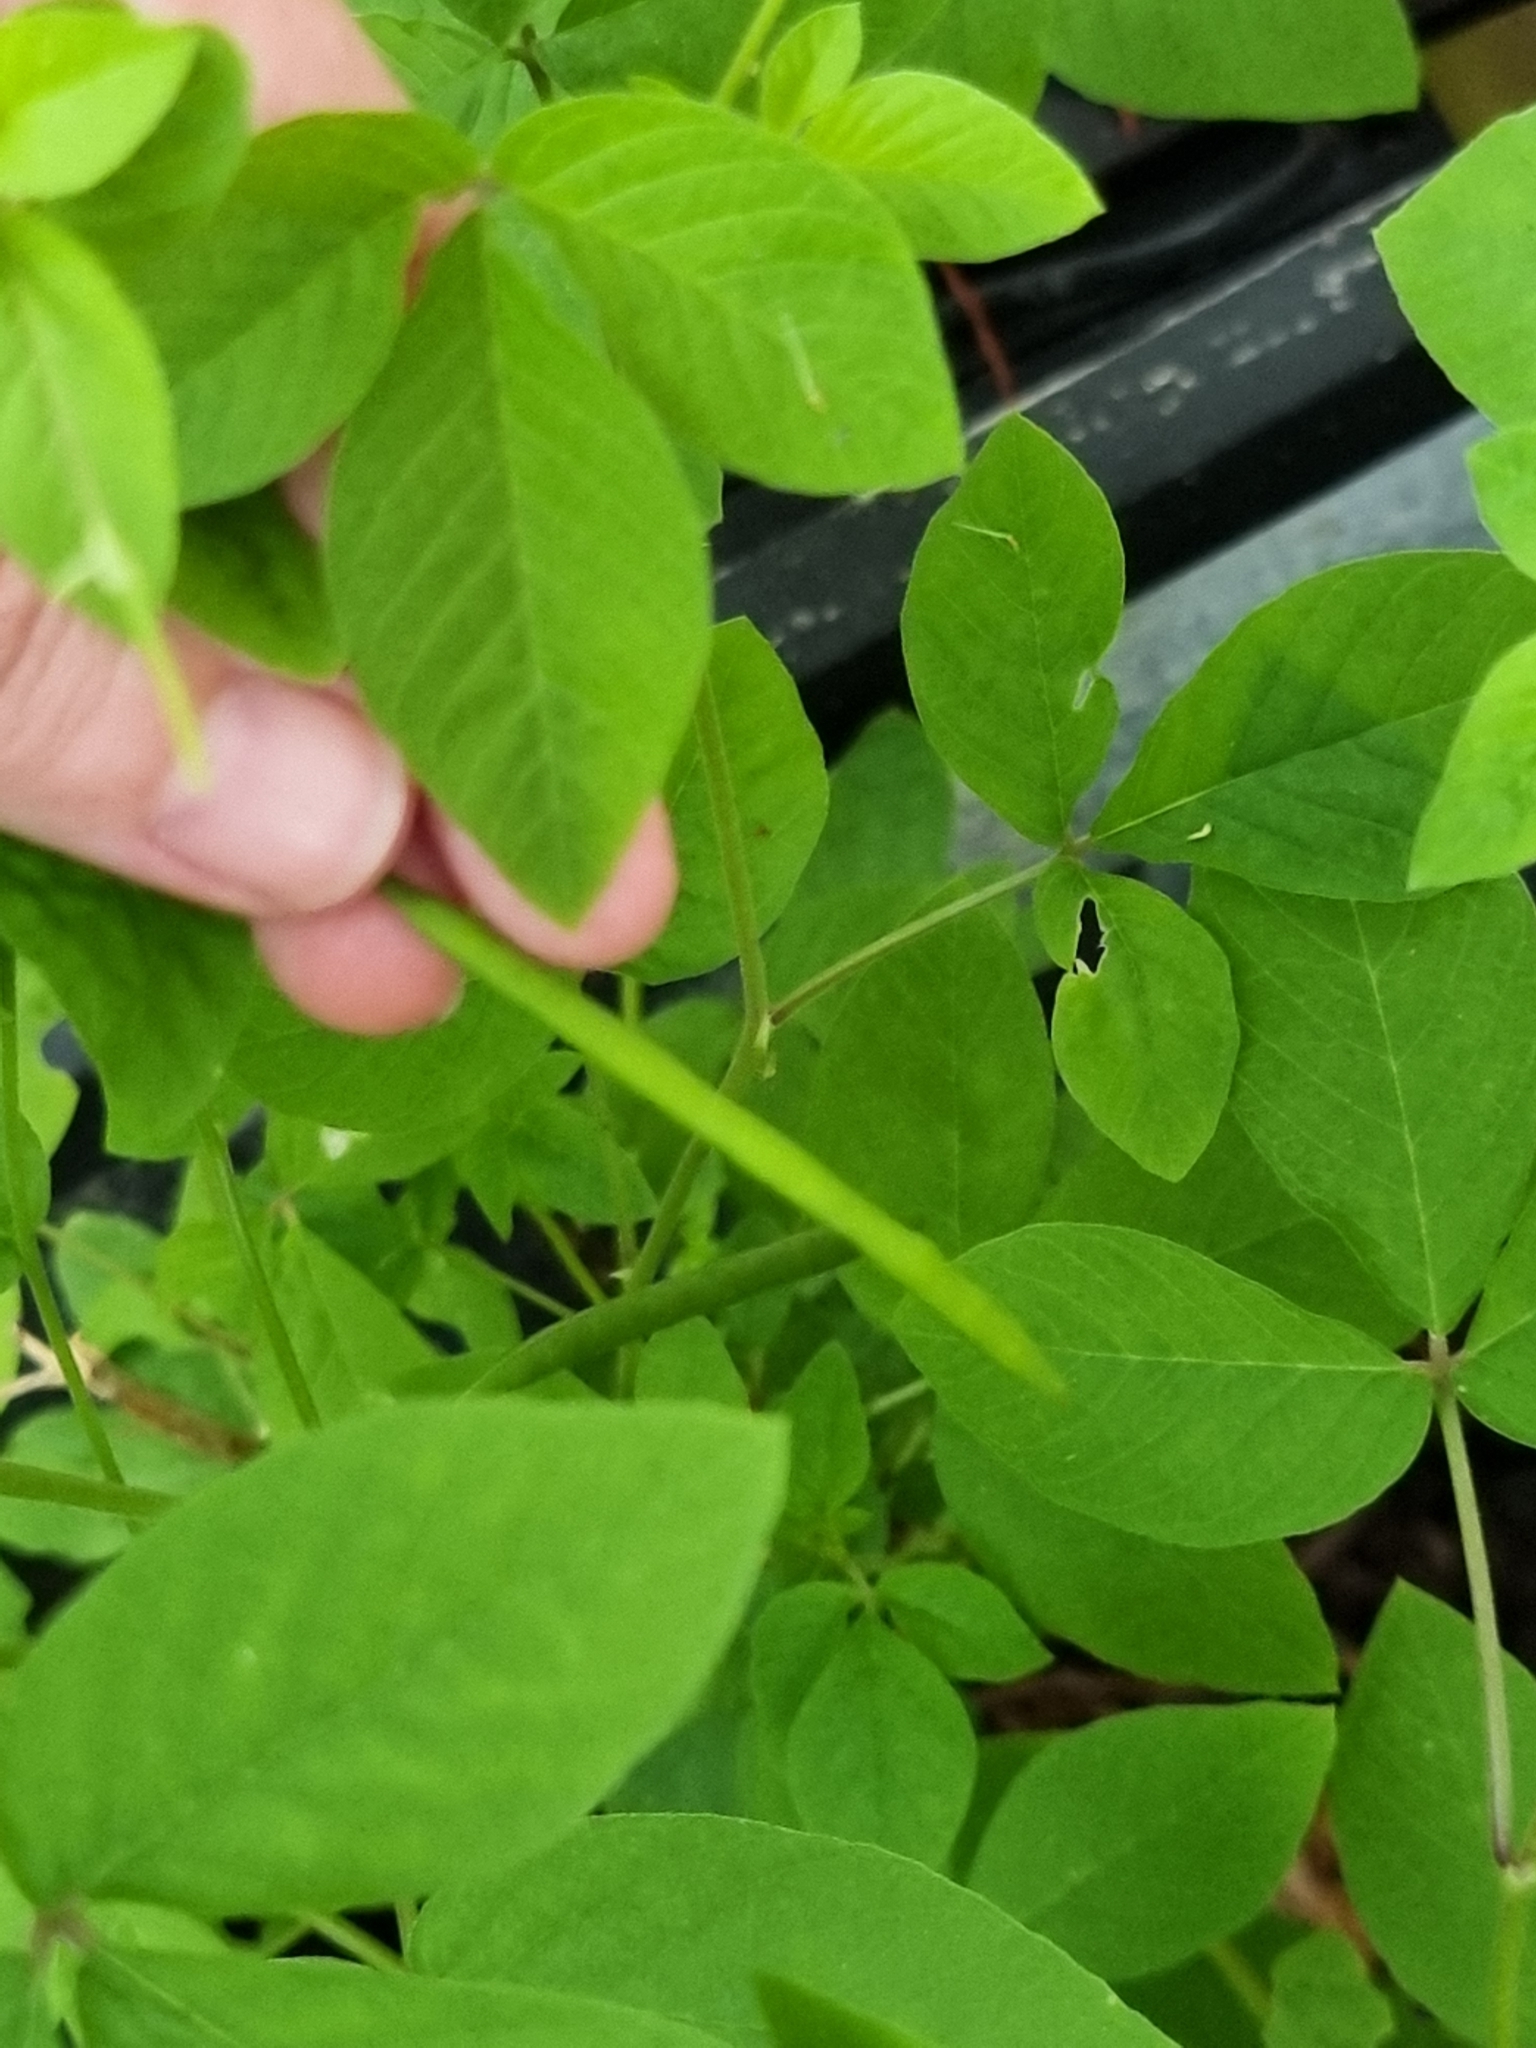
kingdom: Plantae
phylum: Tracheophyta
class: Magnoliopsida
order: Brassicales
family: Cleomaceae
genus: Tarenaya
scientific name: Tarenaya aculeata
